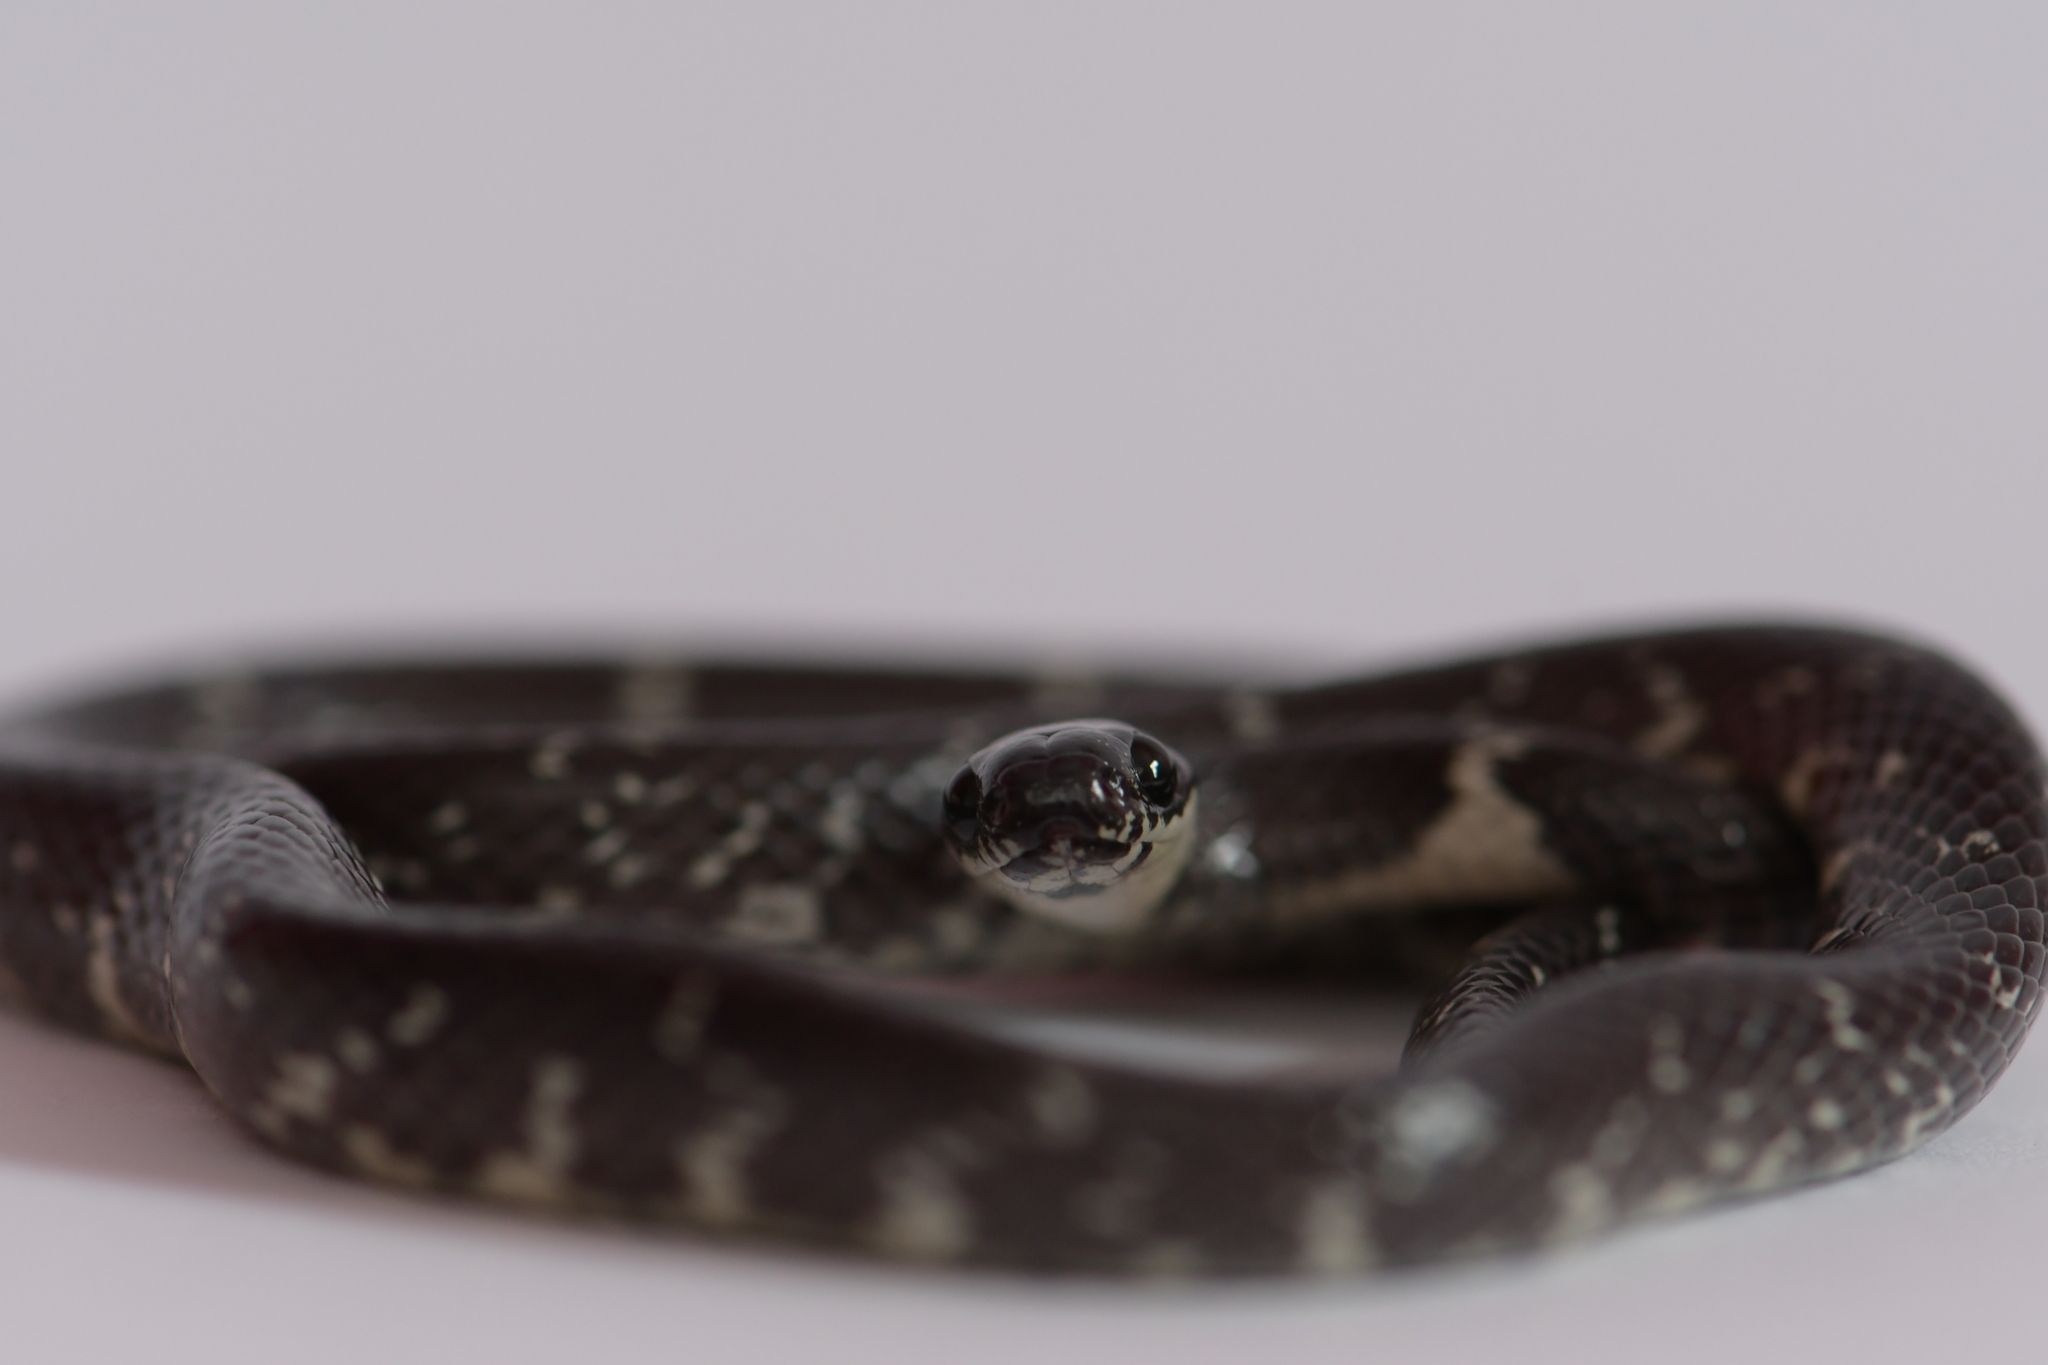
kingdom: Animalia
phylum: Chordata
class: Squamata
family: Colubridae
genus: Tropidodipsas
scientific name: Tropidodipsas fasciata
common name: Banded snail sucker
